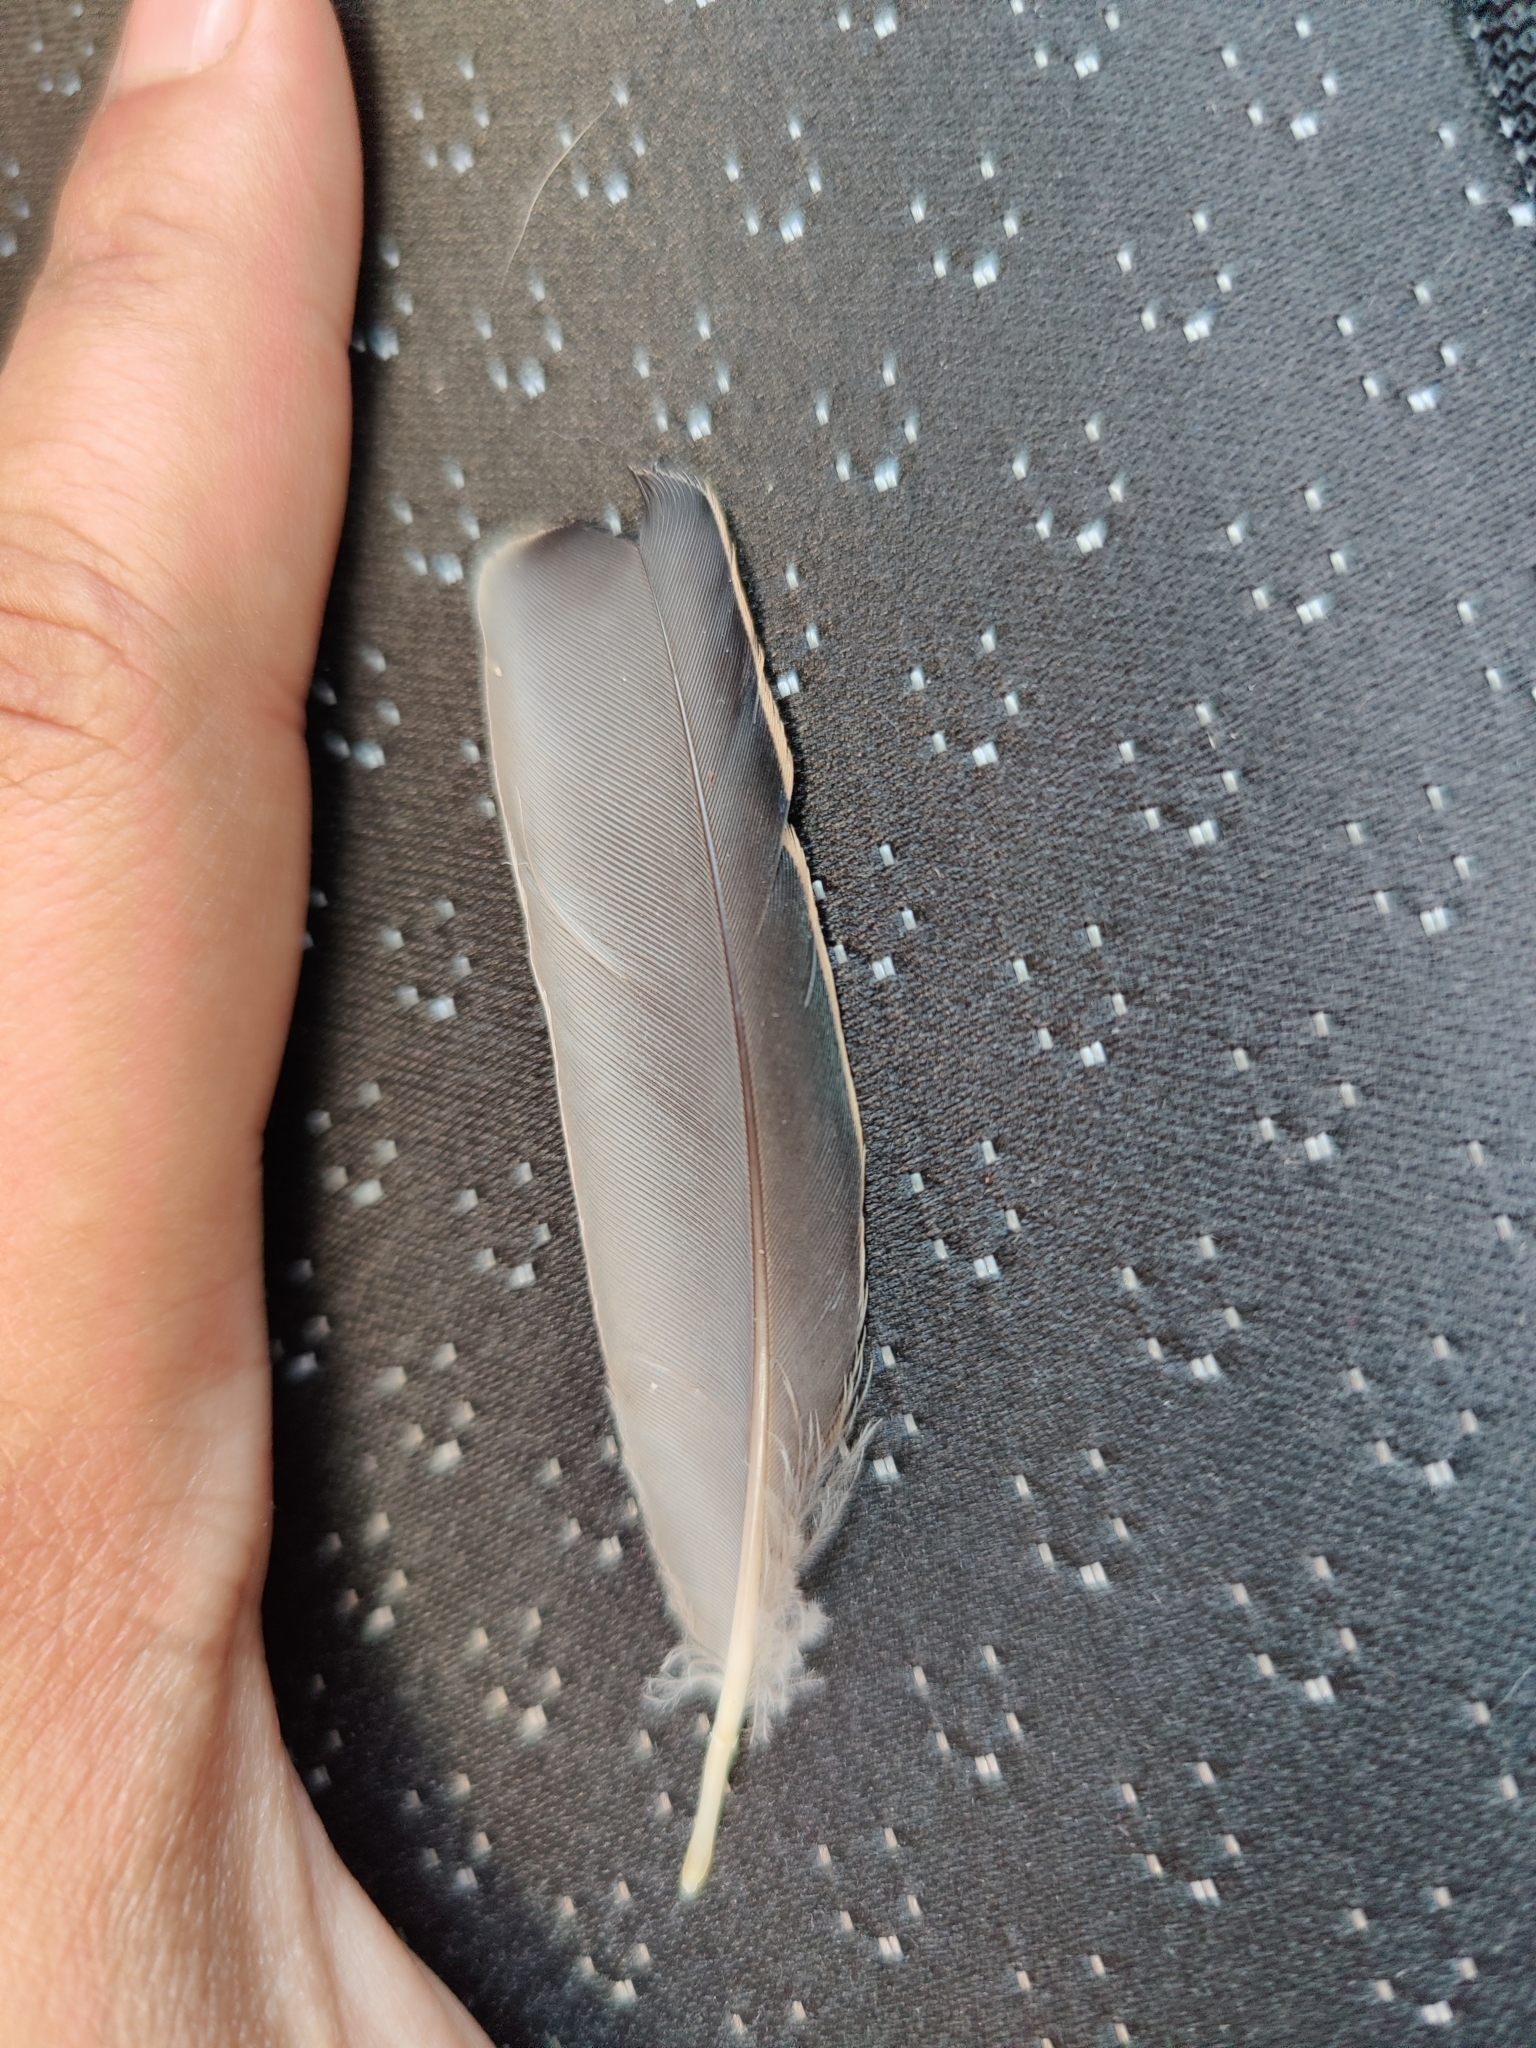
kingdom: Animalia
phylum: Chordata
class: Aves
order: Passeriformes
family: Sturnidae
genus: Sturnus
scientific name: Sturnus vulgaris
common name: Common starling
